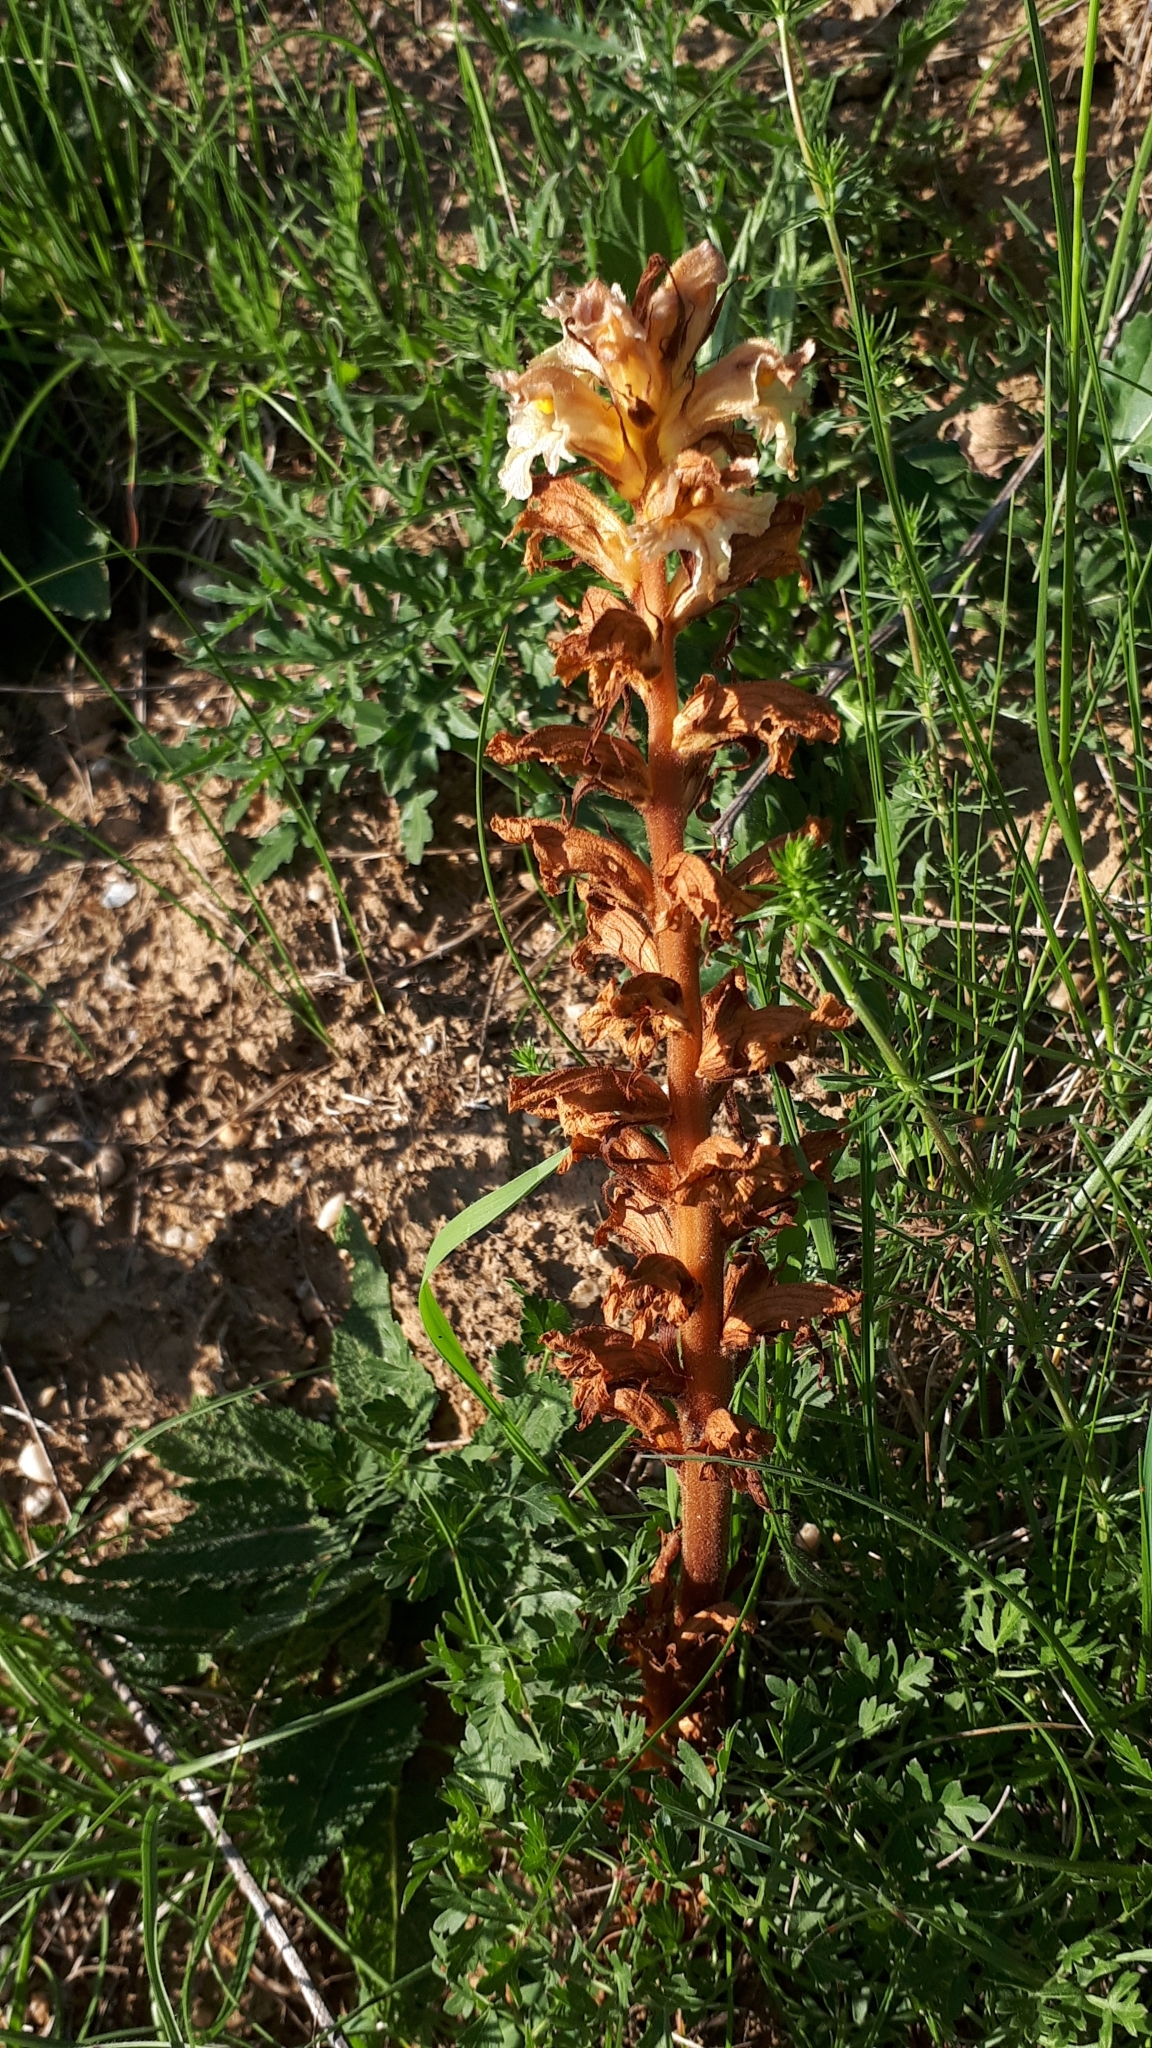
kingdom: Plantae
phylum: Tracheophyta
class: Magnoliopsida
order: Lamiales
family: Orobanchaceae
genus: Orobanche
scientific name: Orobanche lutea
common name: Yellow broomrape
